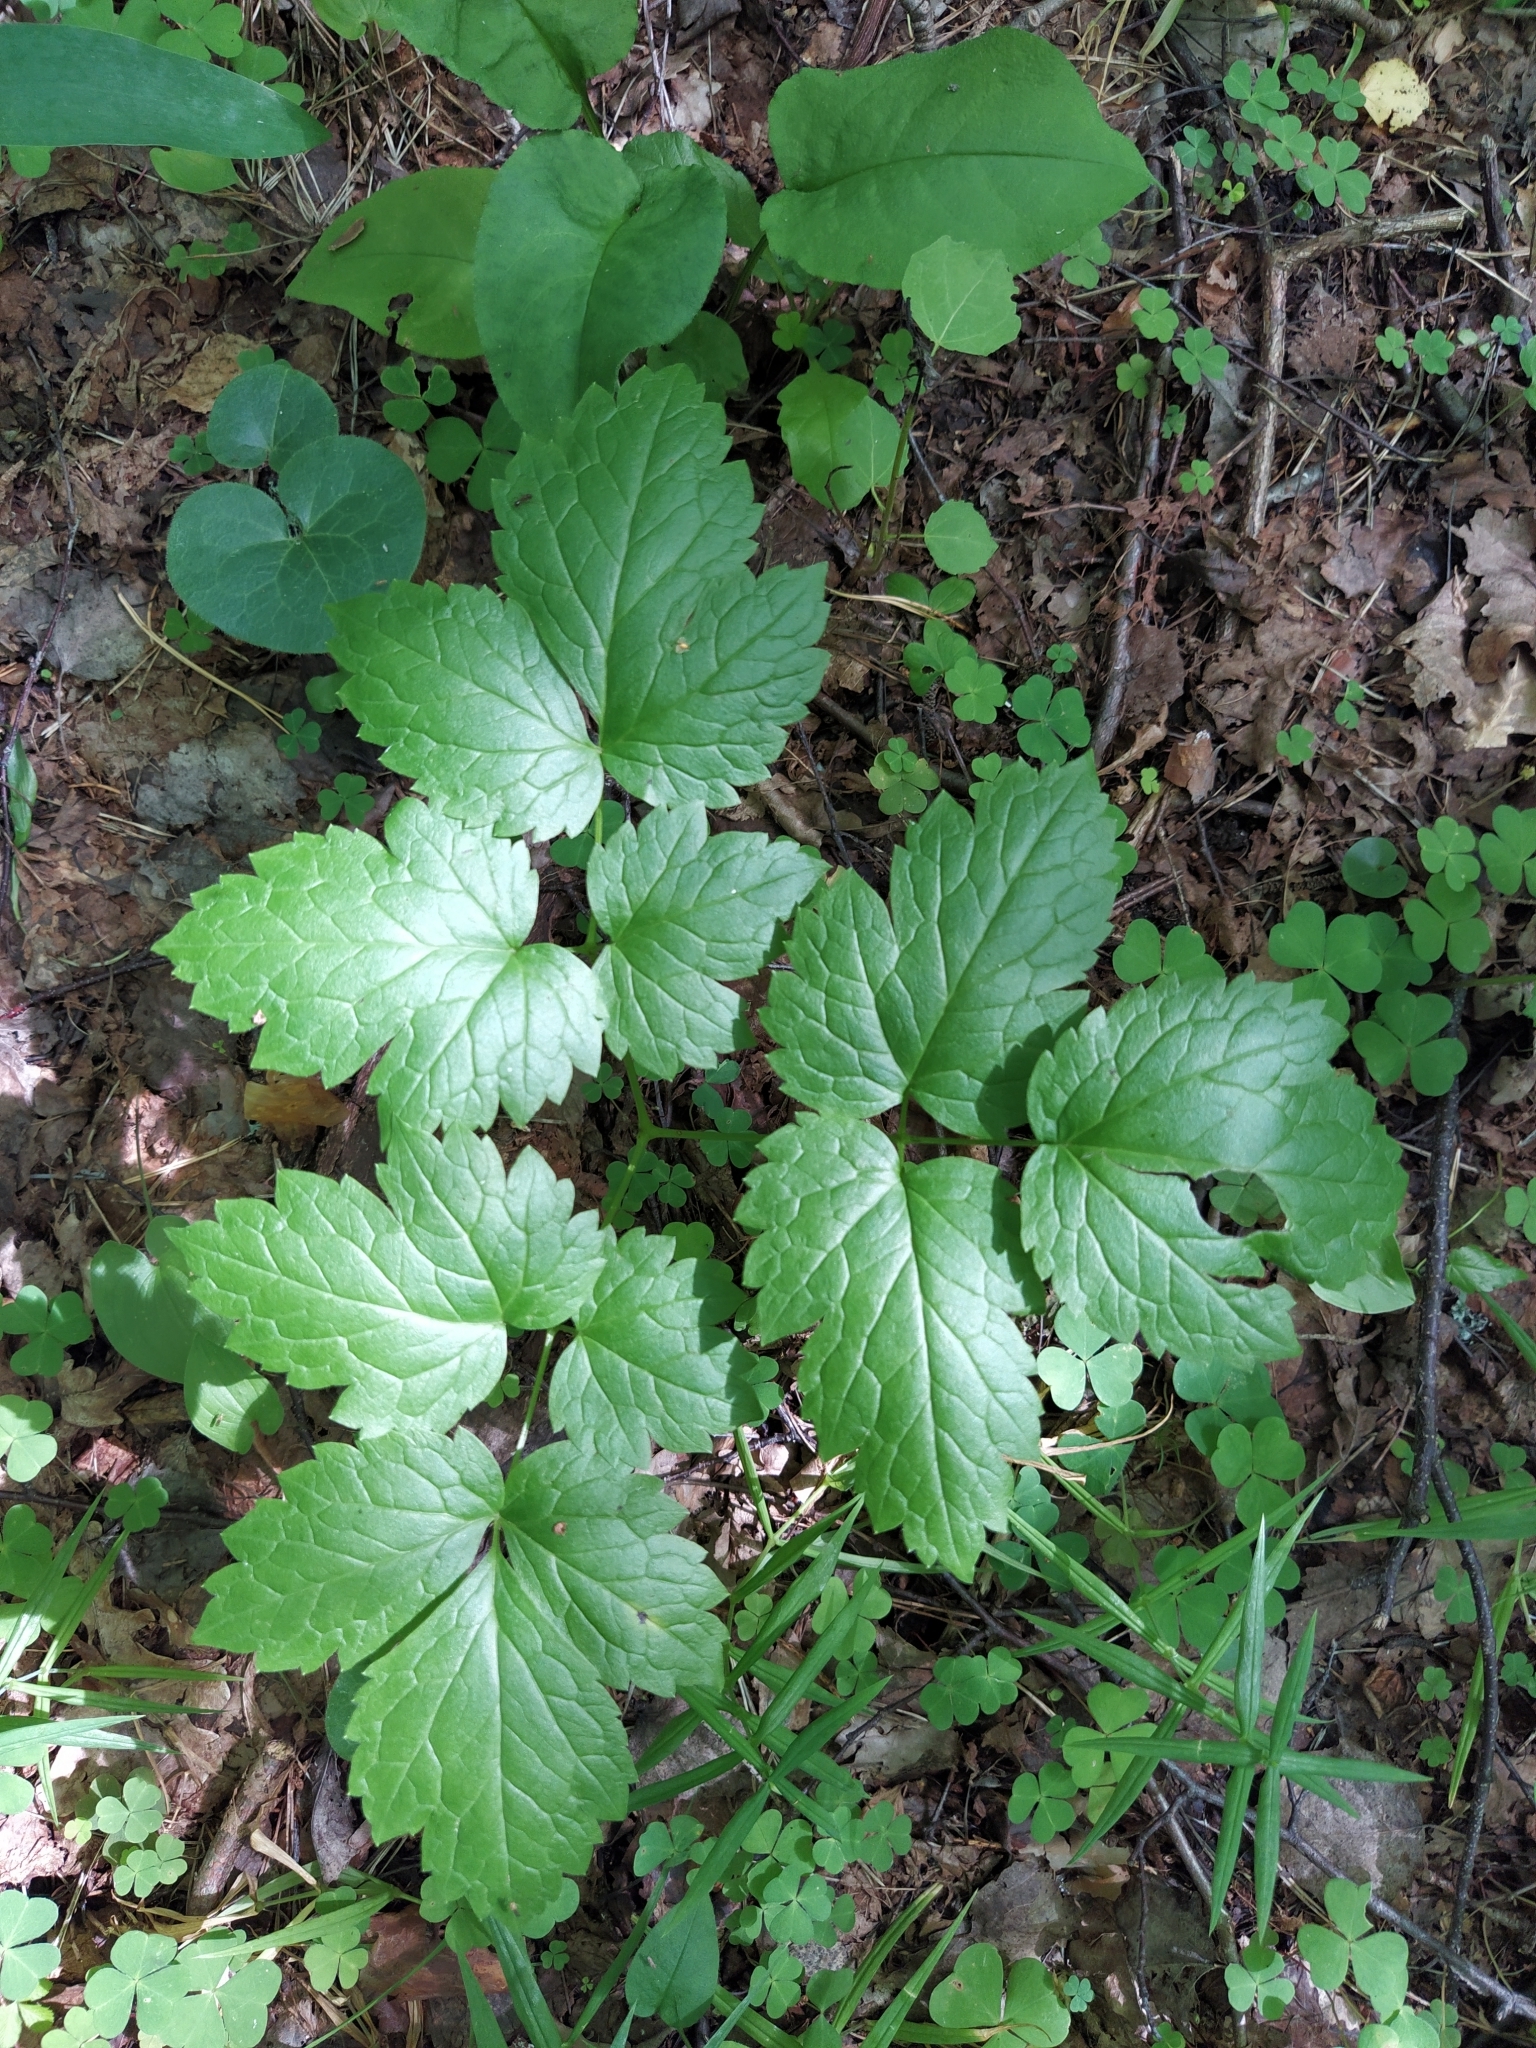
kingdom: Plantae
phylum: Tracheophyta
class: Magnoliopsida
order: Ranunculales
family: Ranunculaceae
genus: Actaea
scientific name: Actaea spicata
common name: Baneberry
